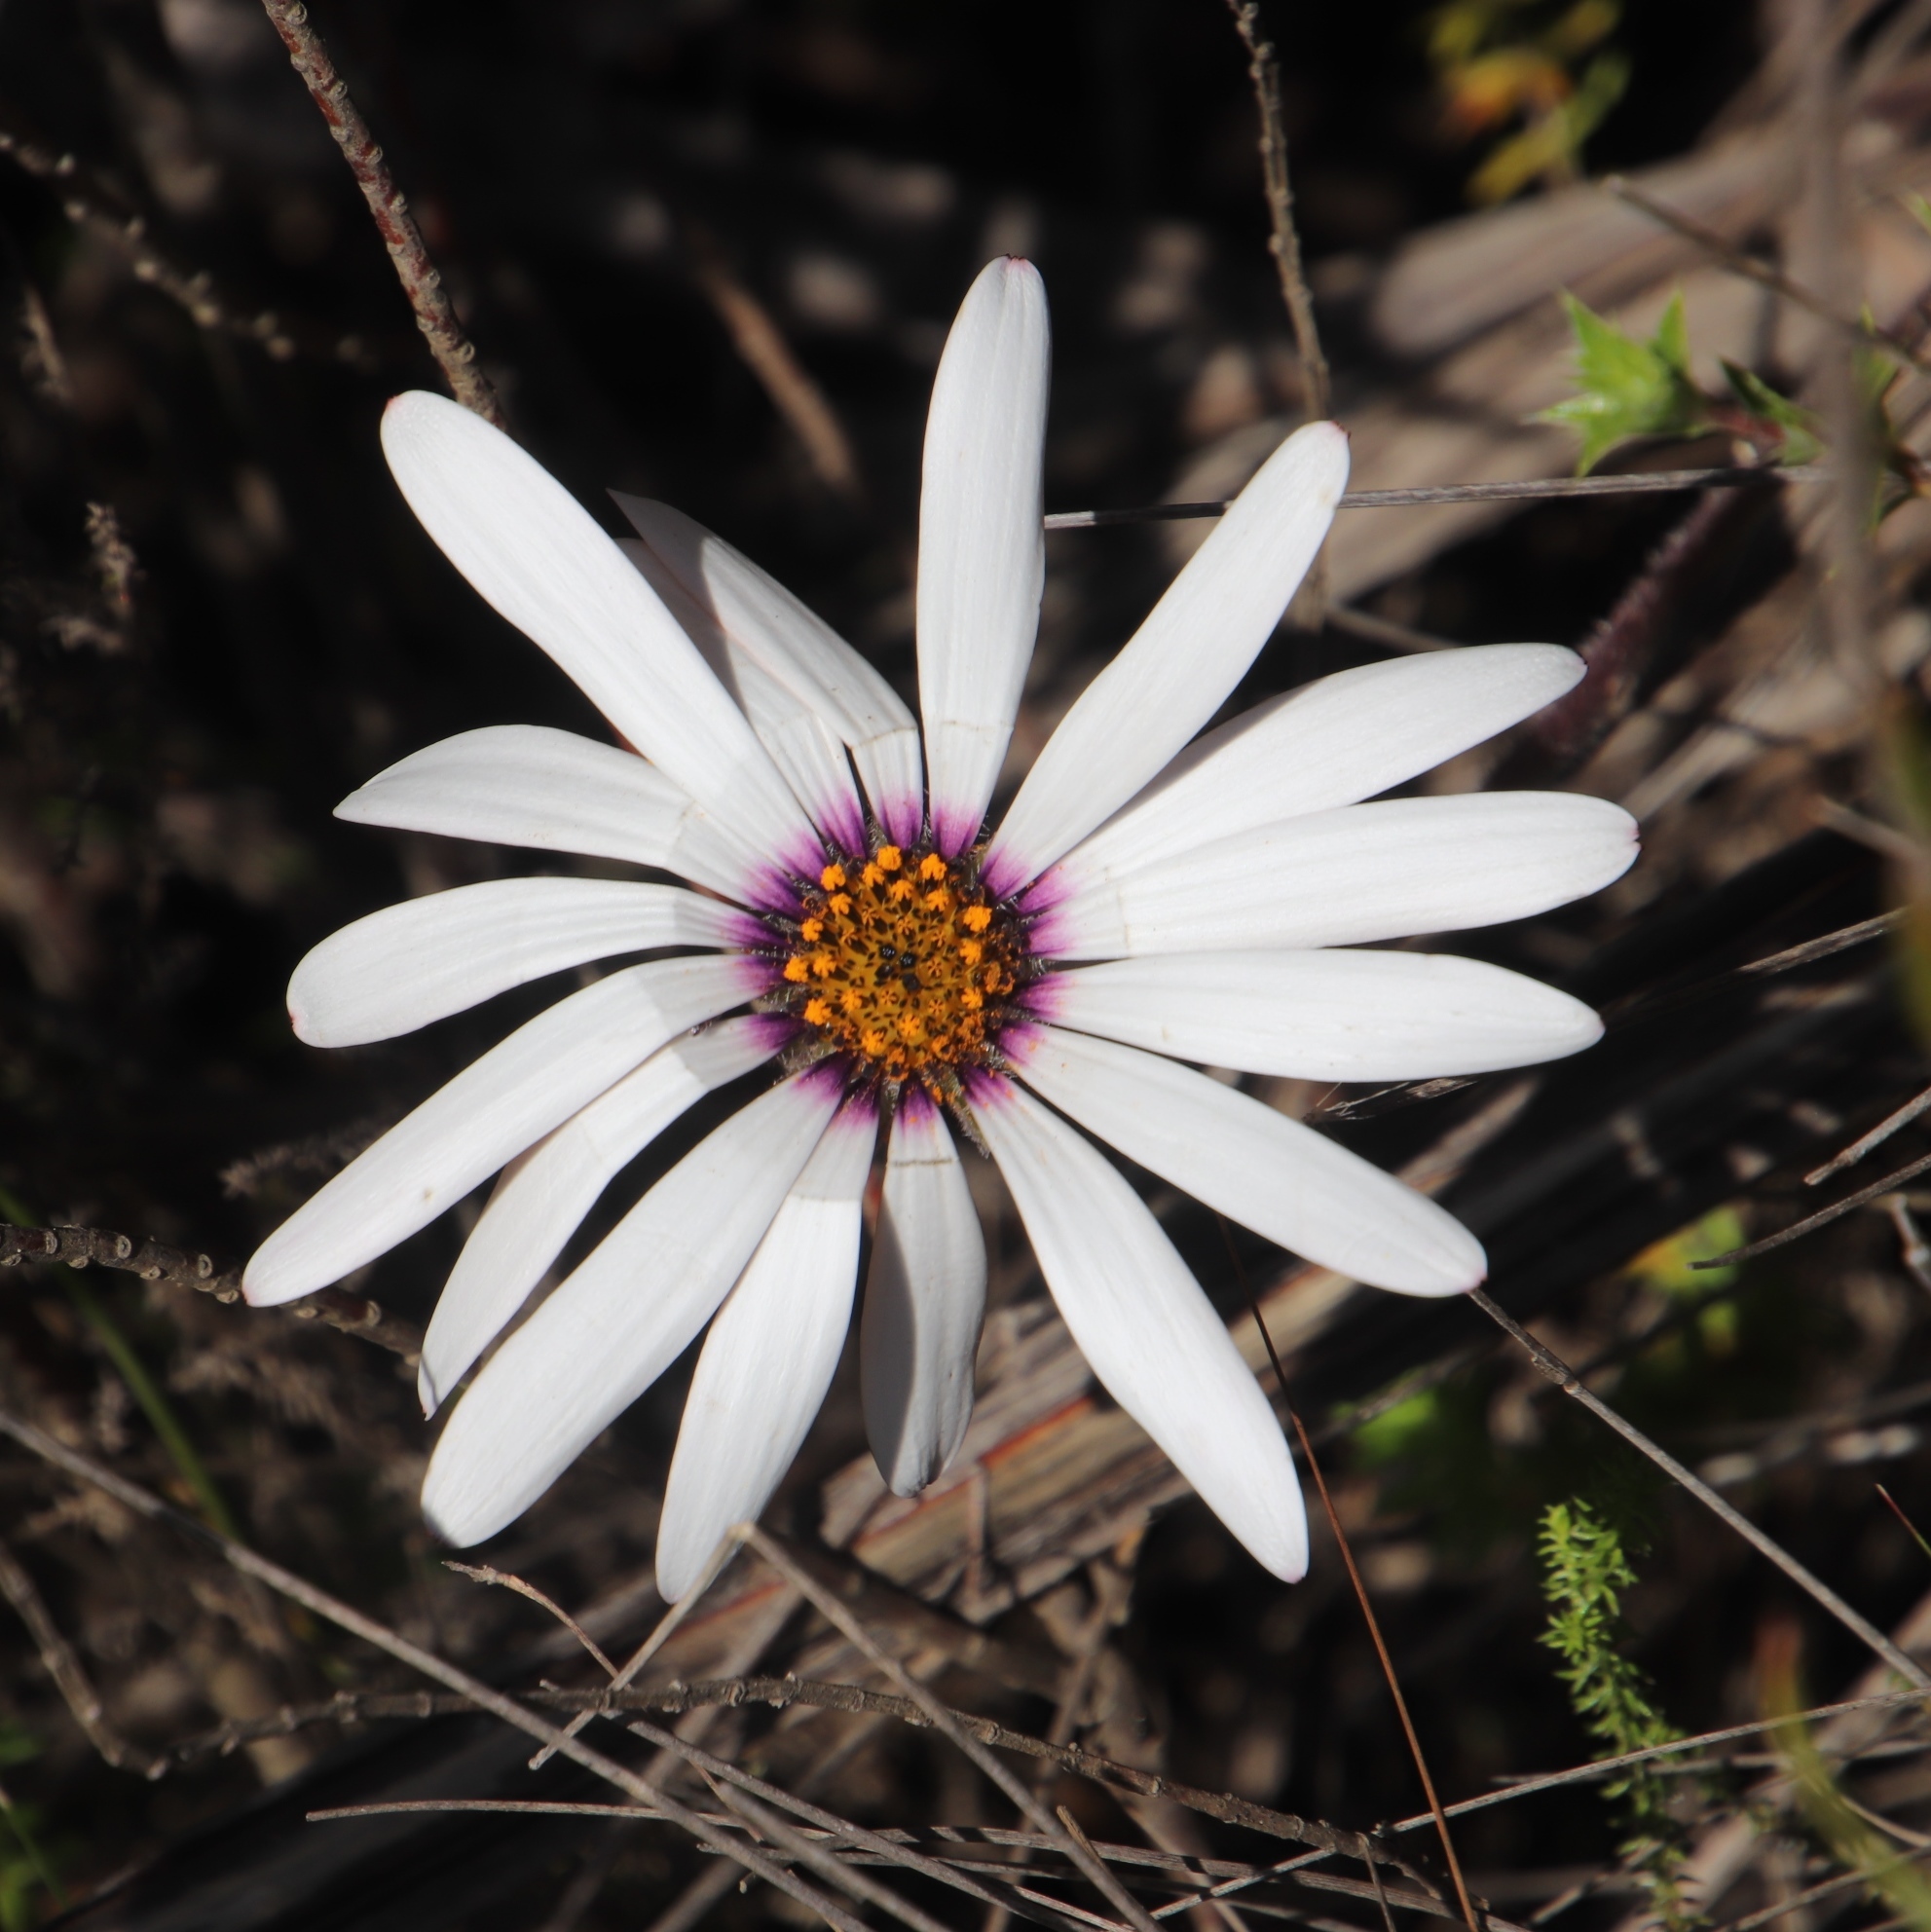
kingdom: Plantae
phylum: Tracheophyta
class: Magnoliopsida
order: Asterales
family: Asteraceae
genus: Dimorphotheca
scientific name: Dimorphotheca nudicaulis
